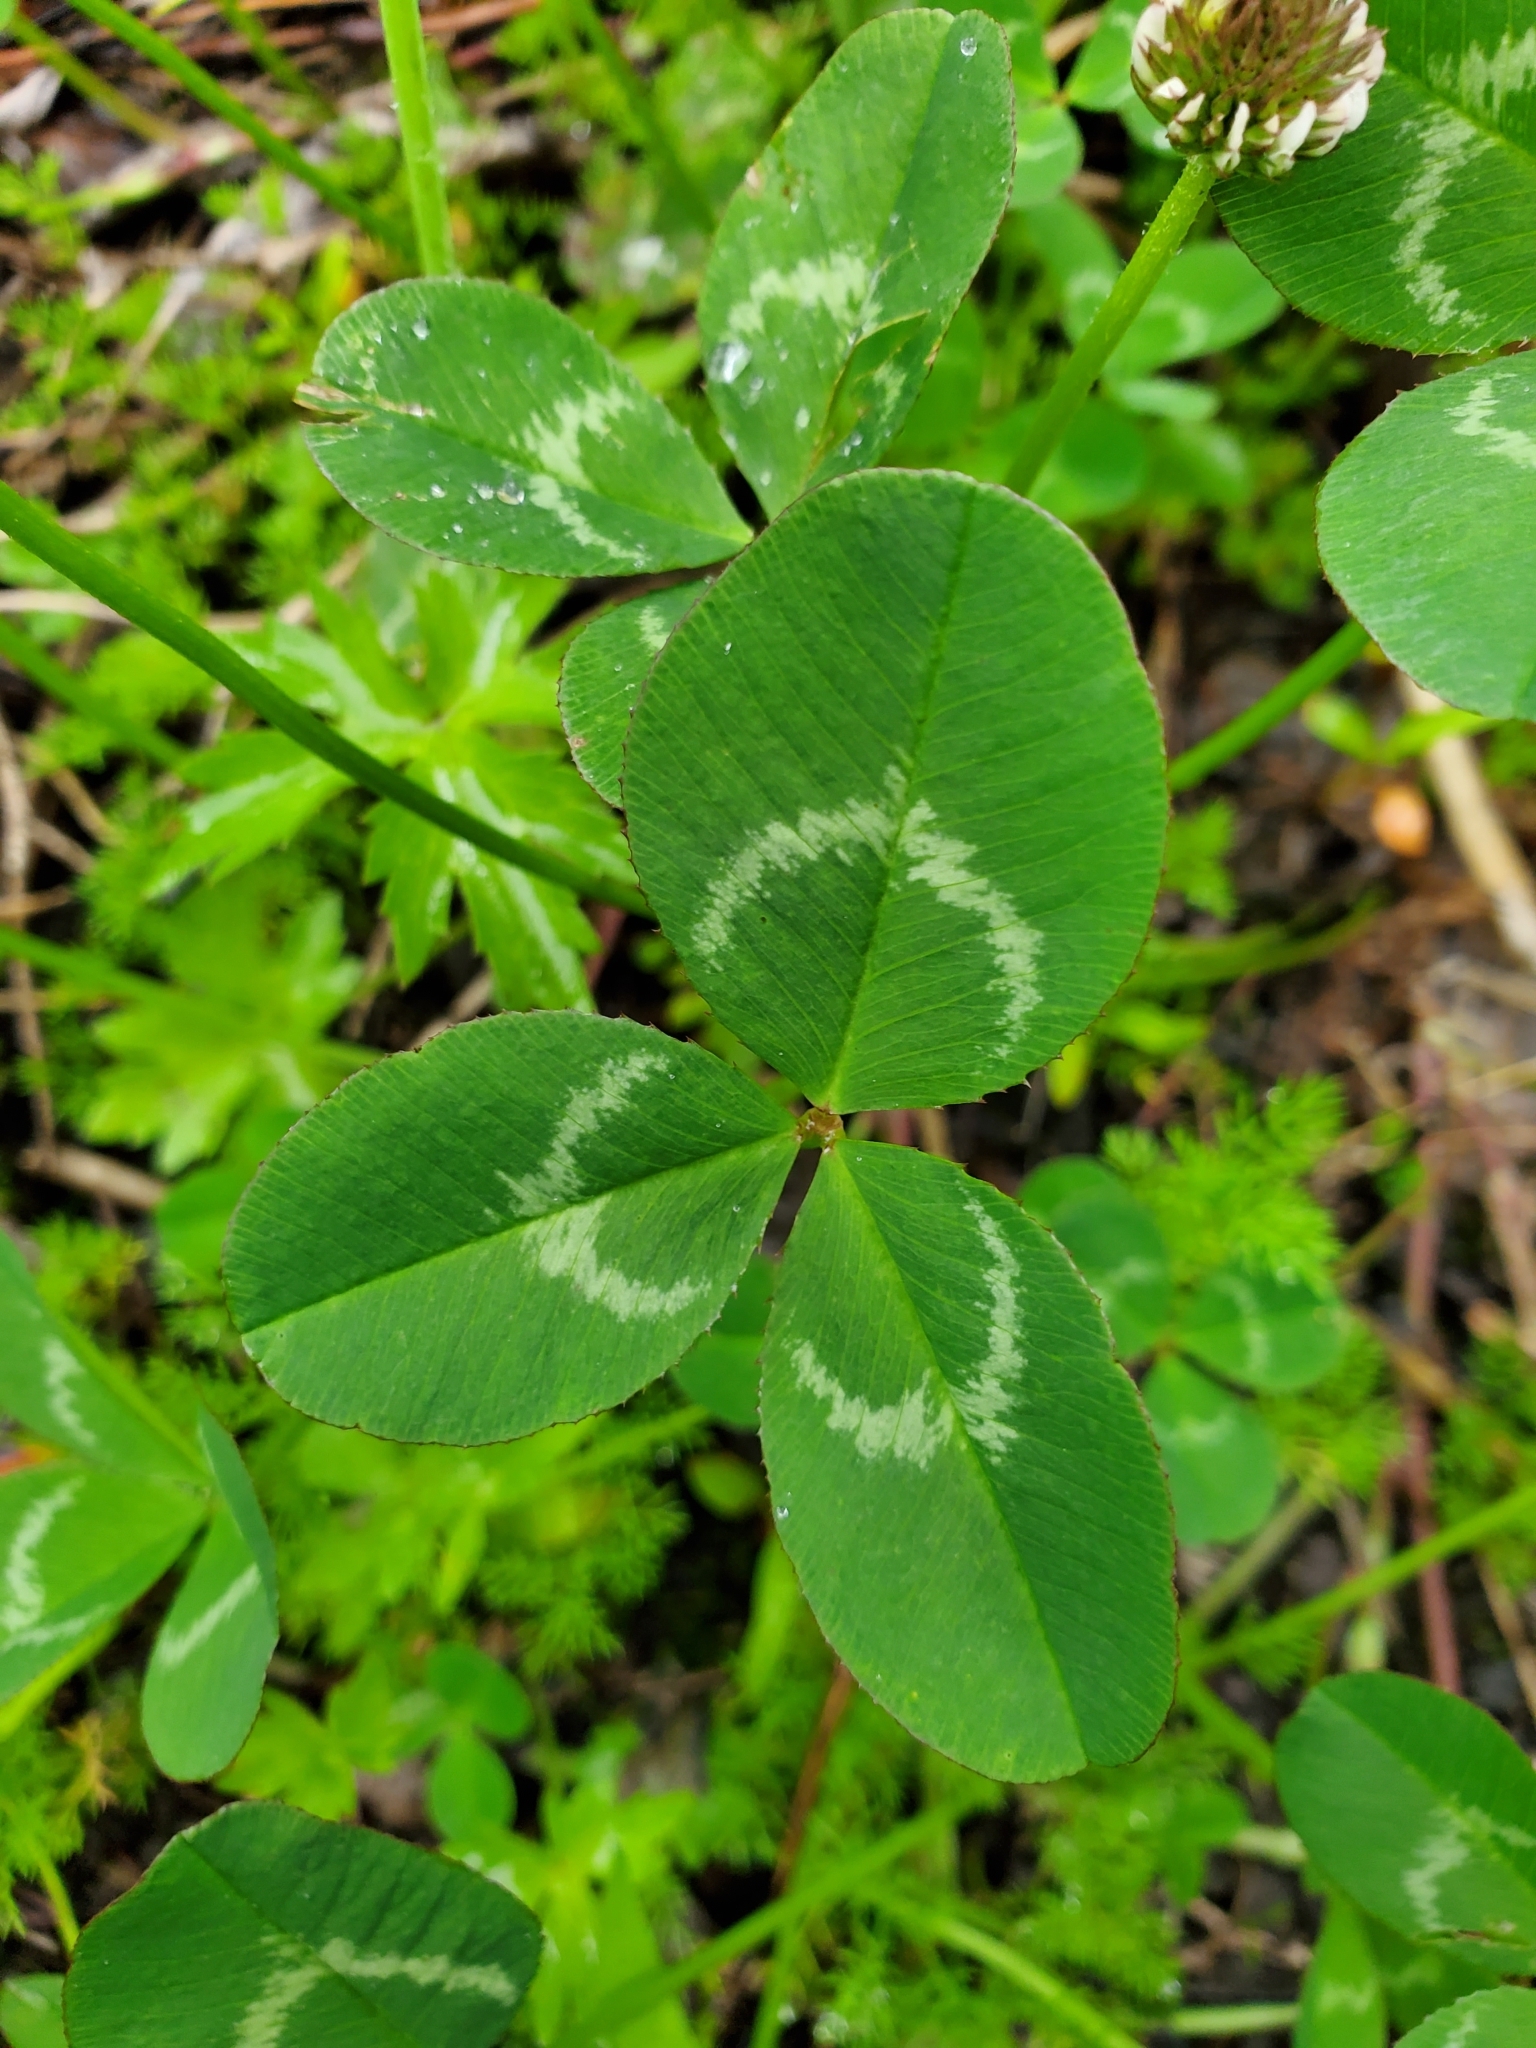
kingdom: Plantae
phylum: Tracheophyta
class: Magnoliopsida
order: Fabales
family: Fabaceae
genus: Trifolium
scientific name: Trifolium repens
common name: White clover
